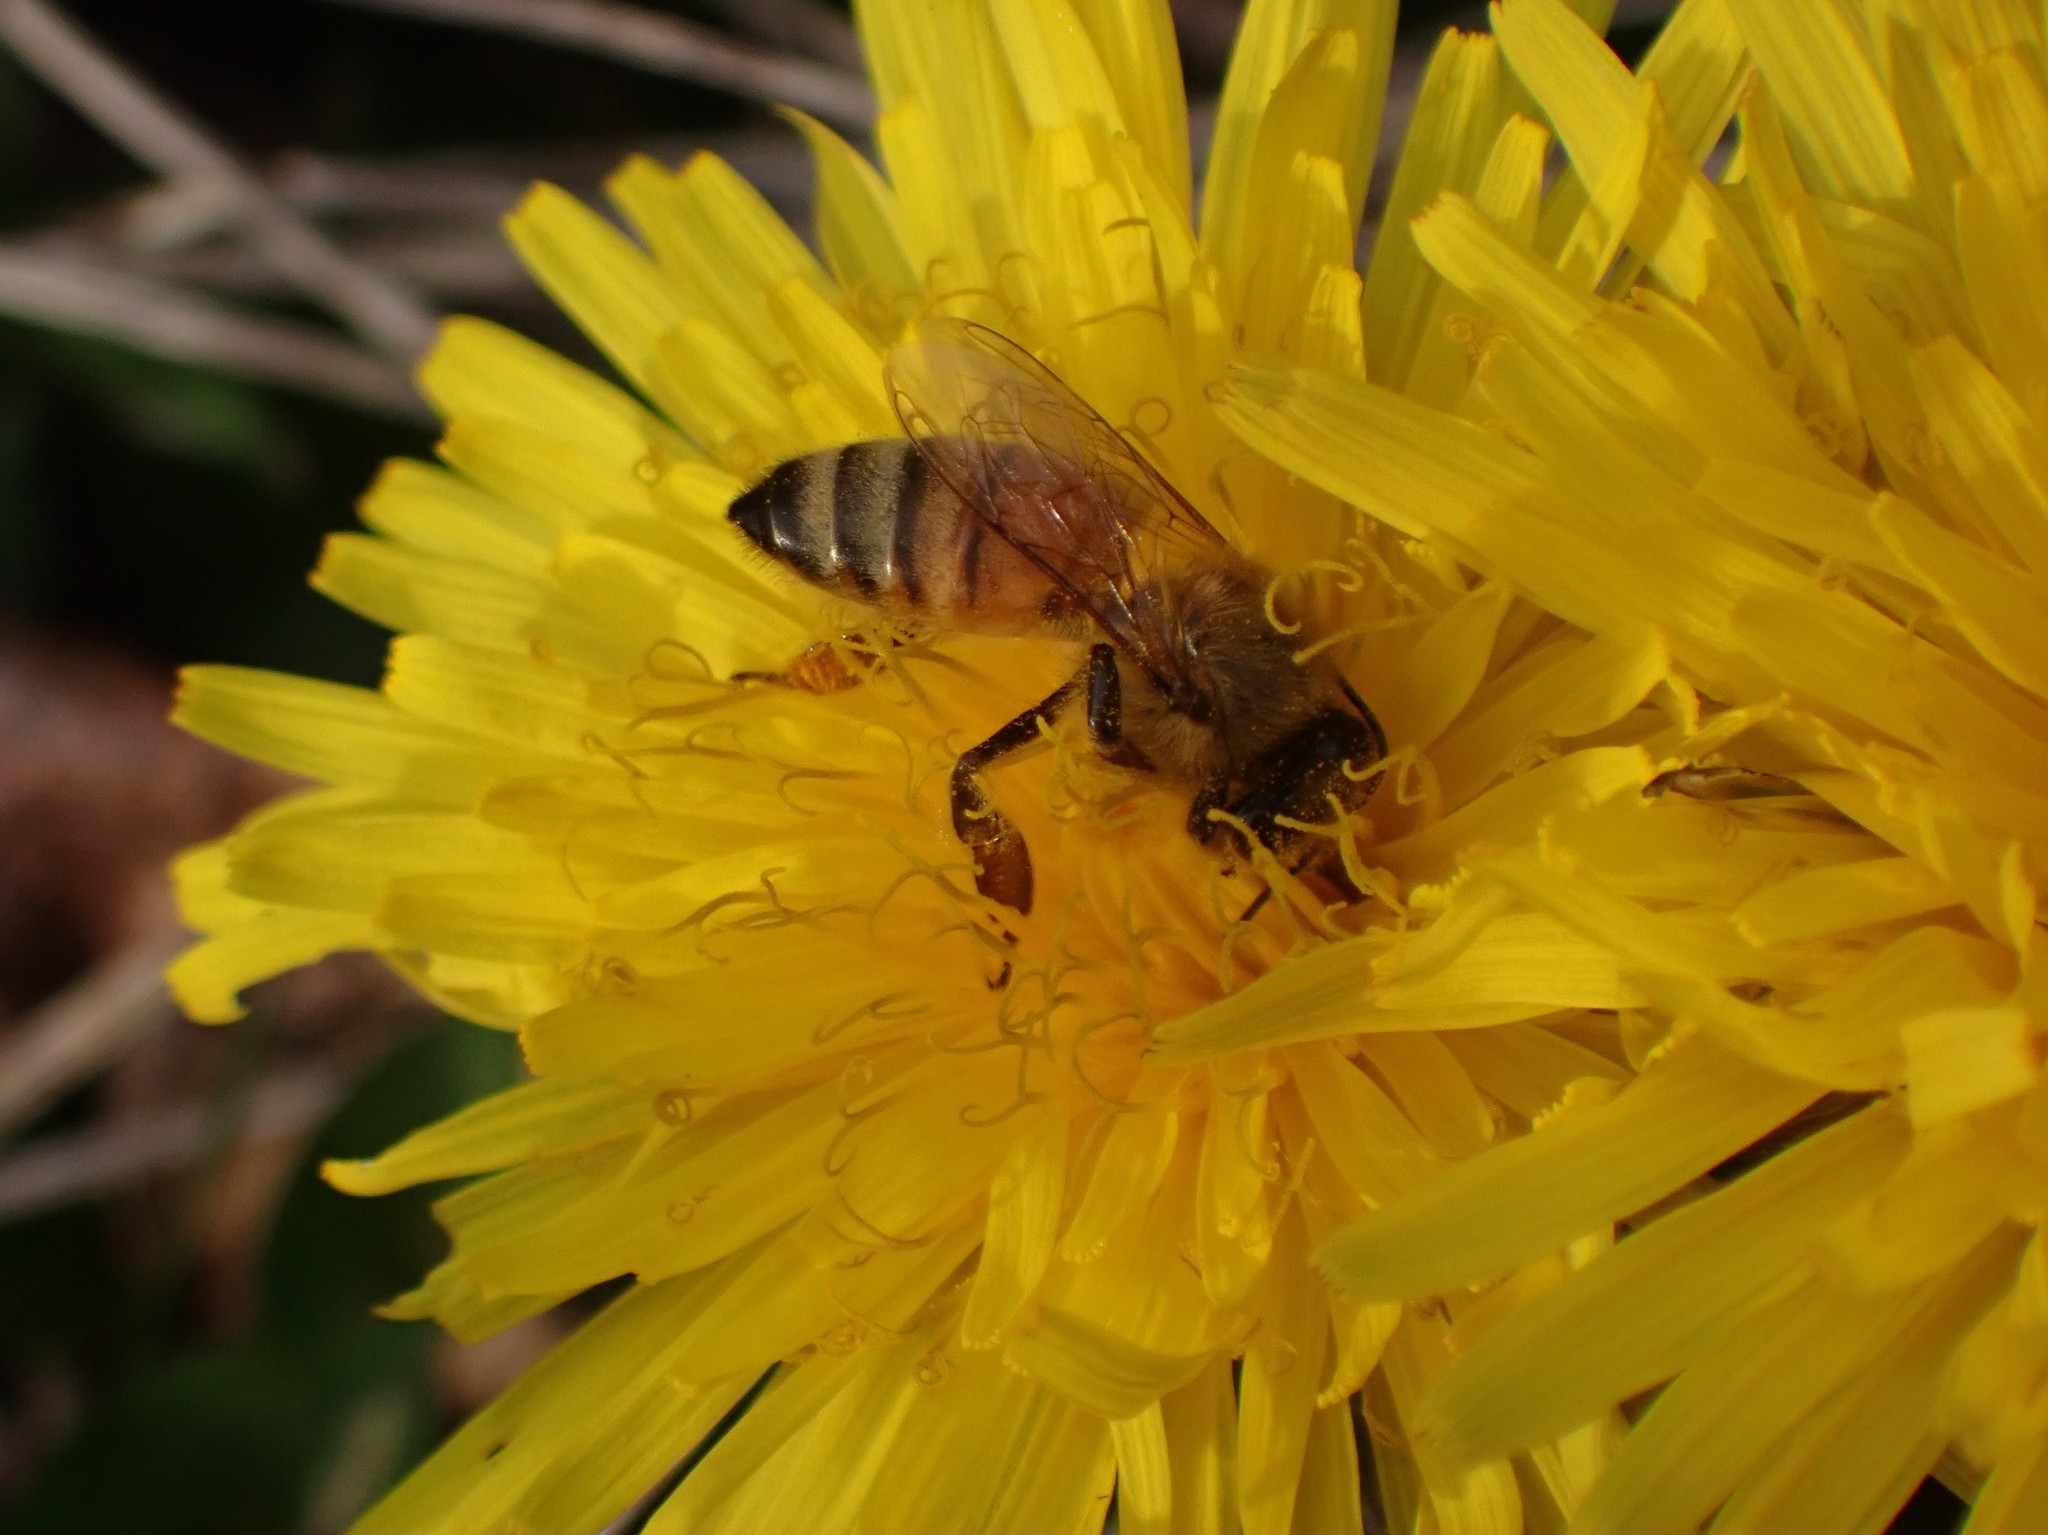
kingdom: Animalia
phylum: Arthropoda
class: Insecta
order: Hymenoptera
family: Apidae
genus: Apis
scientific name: Apis mellifera
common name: Honey bee
